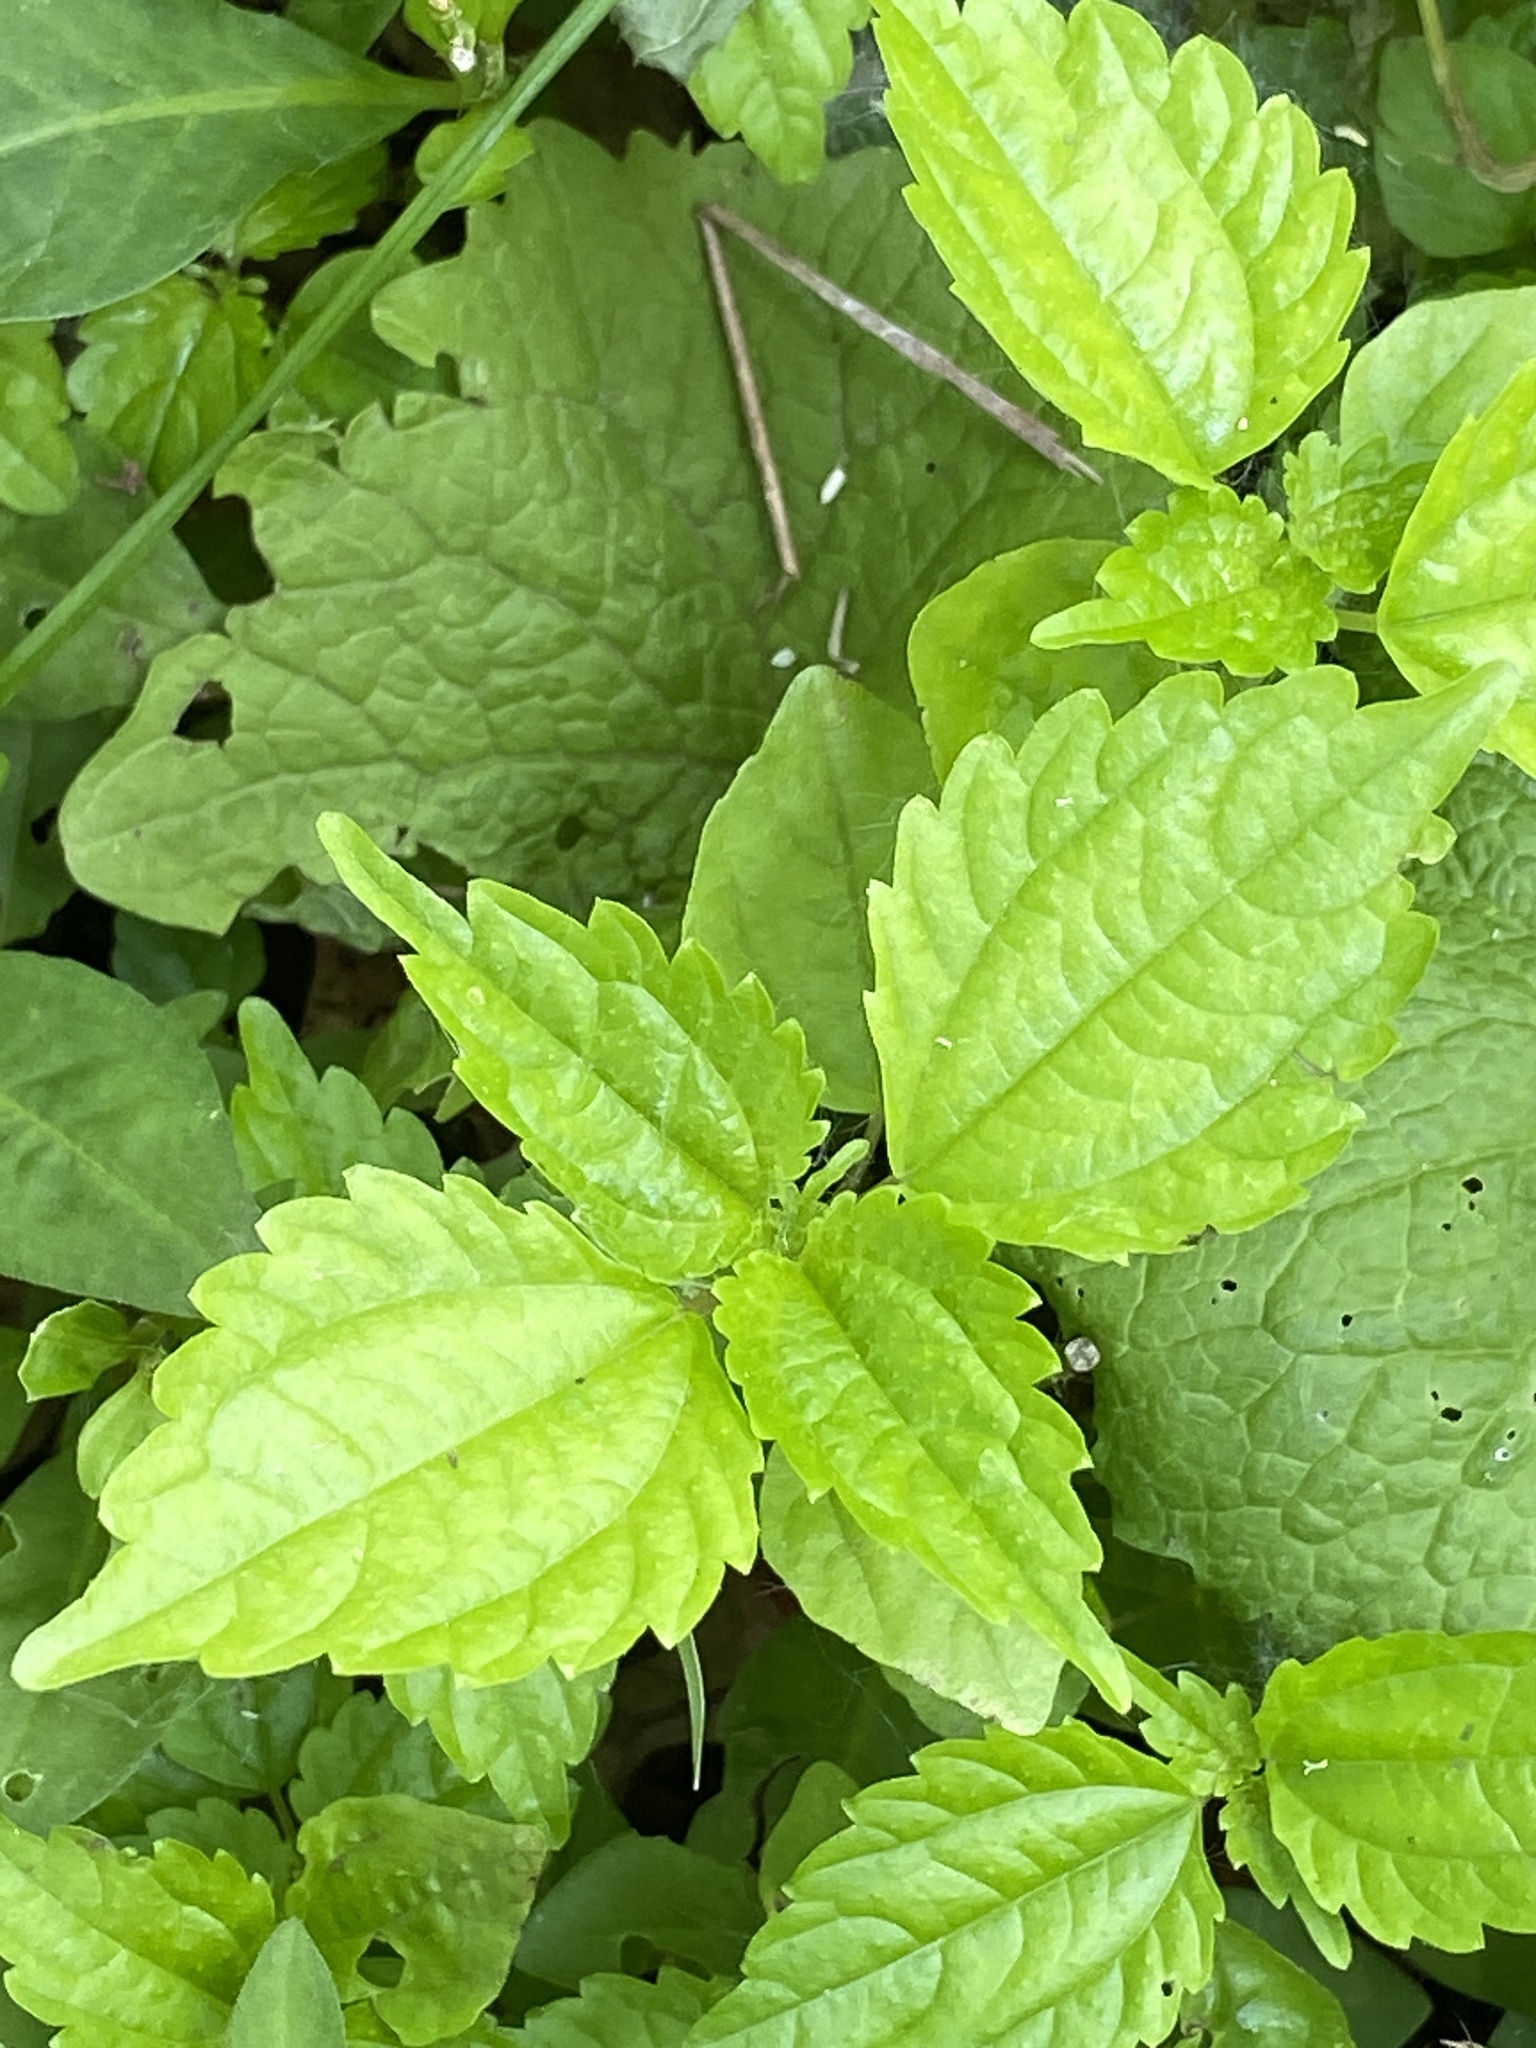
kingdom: Plantae
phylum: Tracheophyta
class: Magnoliopsida
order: Rosales
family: Urticaceae
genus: Pilea
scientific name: Pilea pumila
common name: Clearweed
